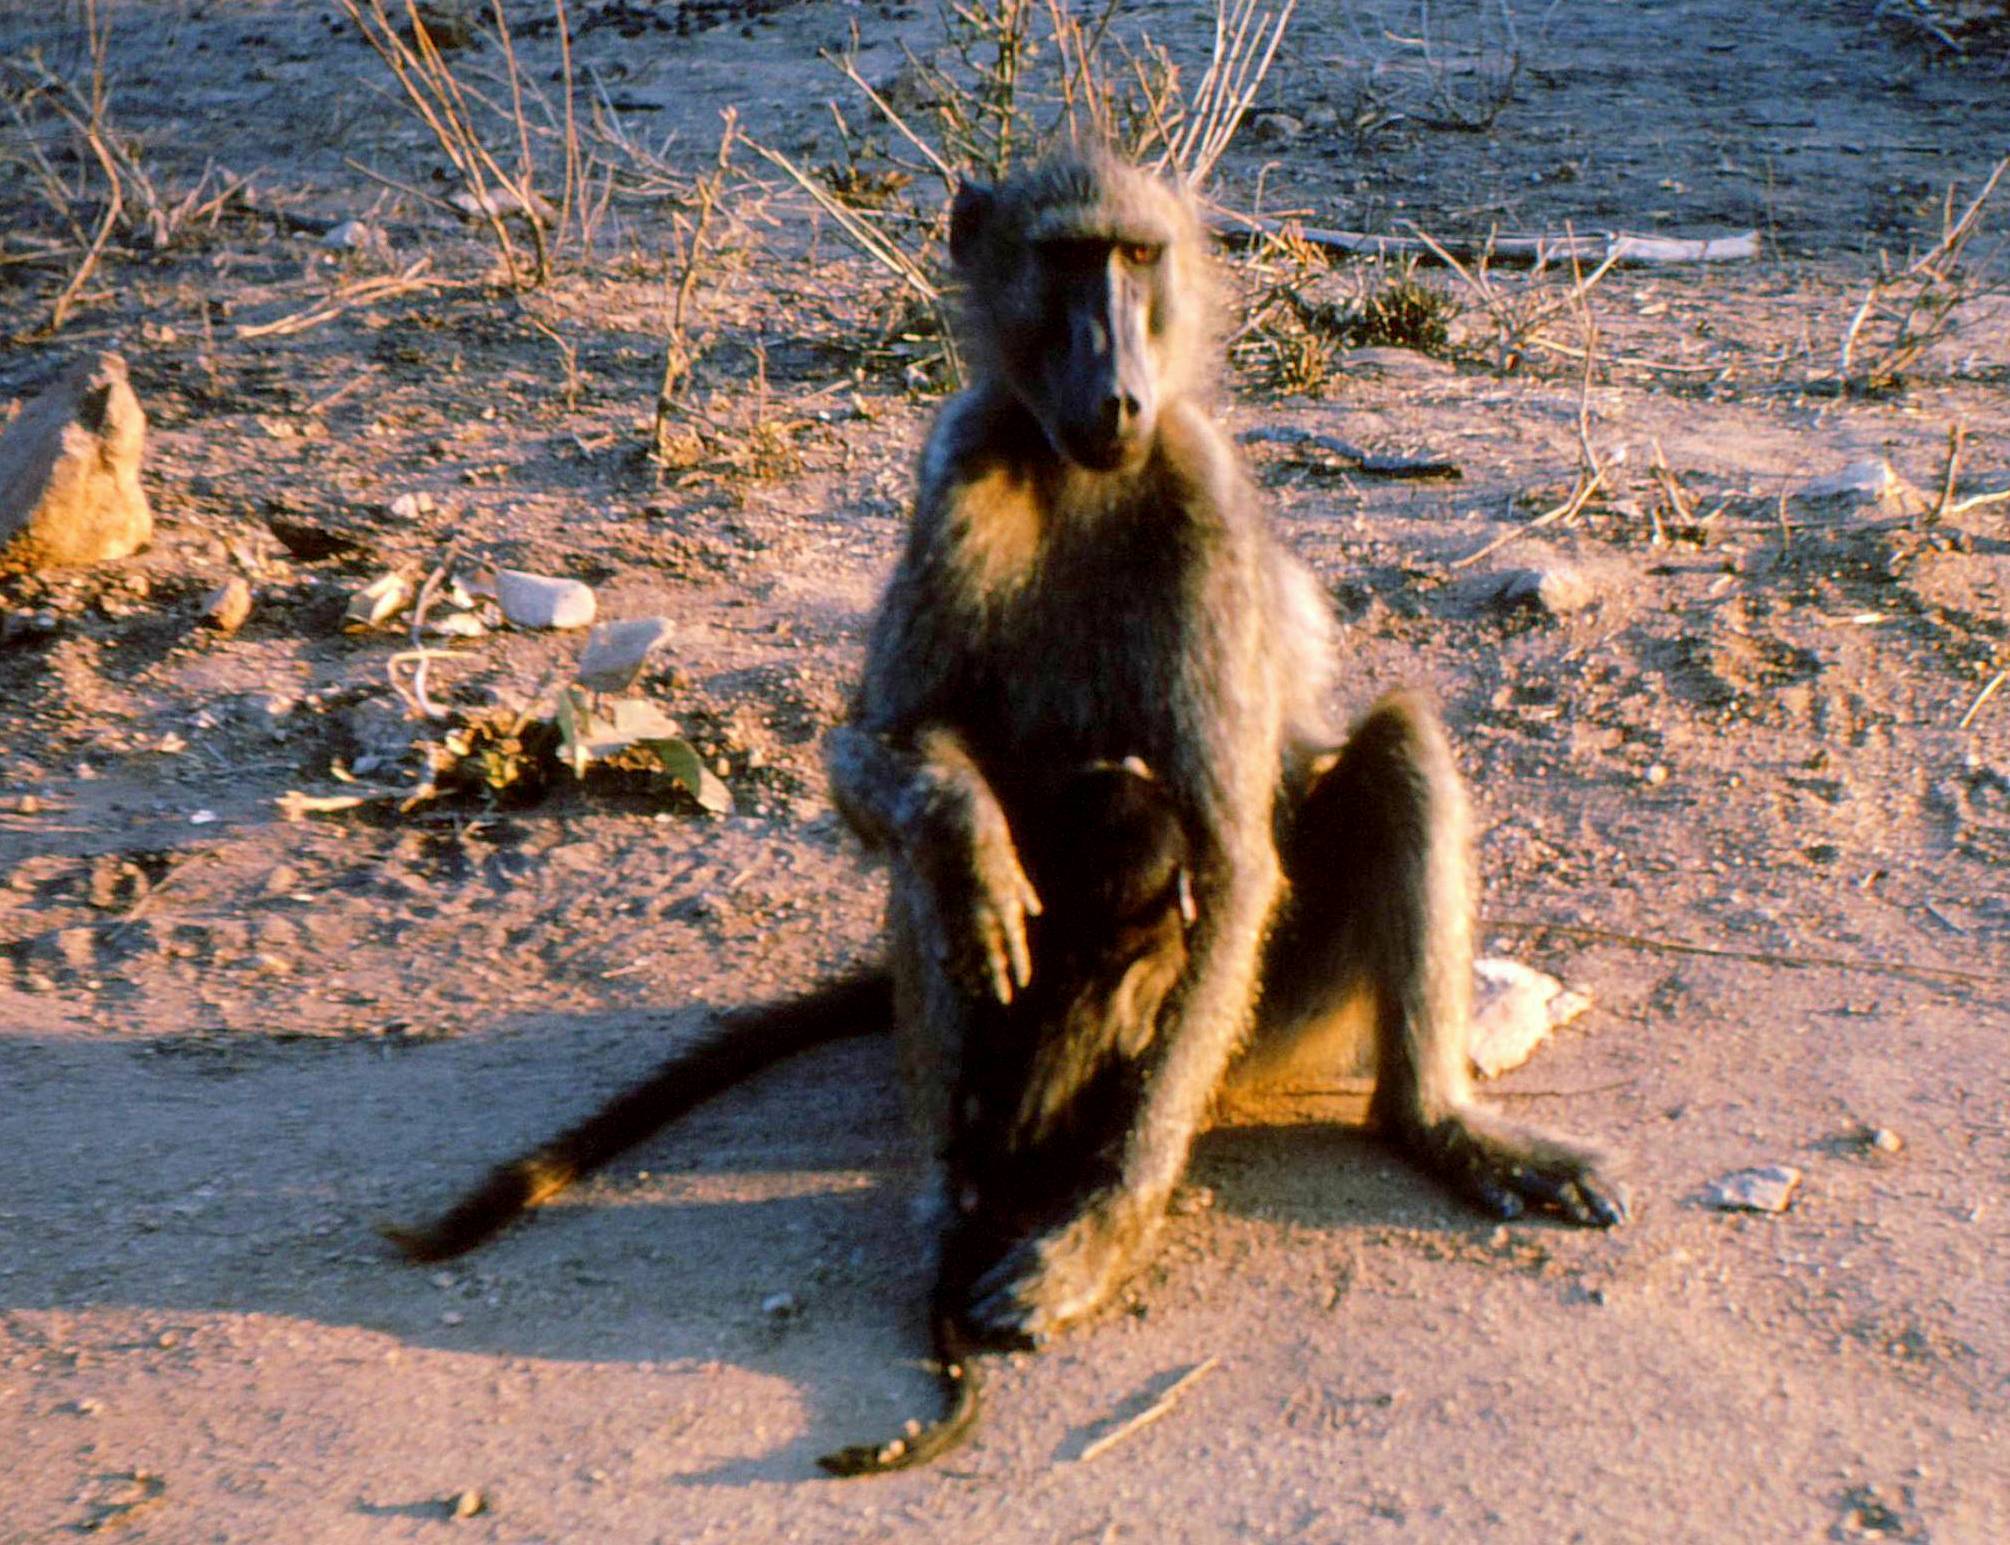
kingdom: Animalia
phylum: Chordata
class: Mammalia
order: Primates
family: Cercopithecidae
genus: Papio
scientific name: Papio ursinus
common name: Chacma baboon
